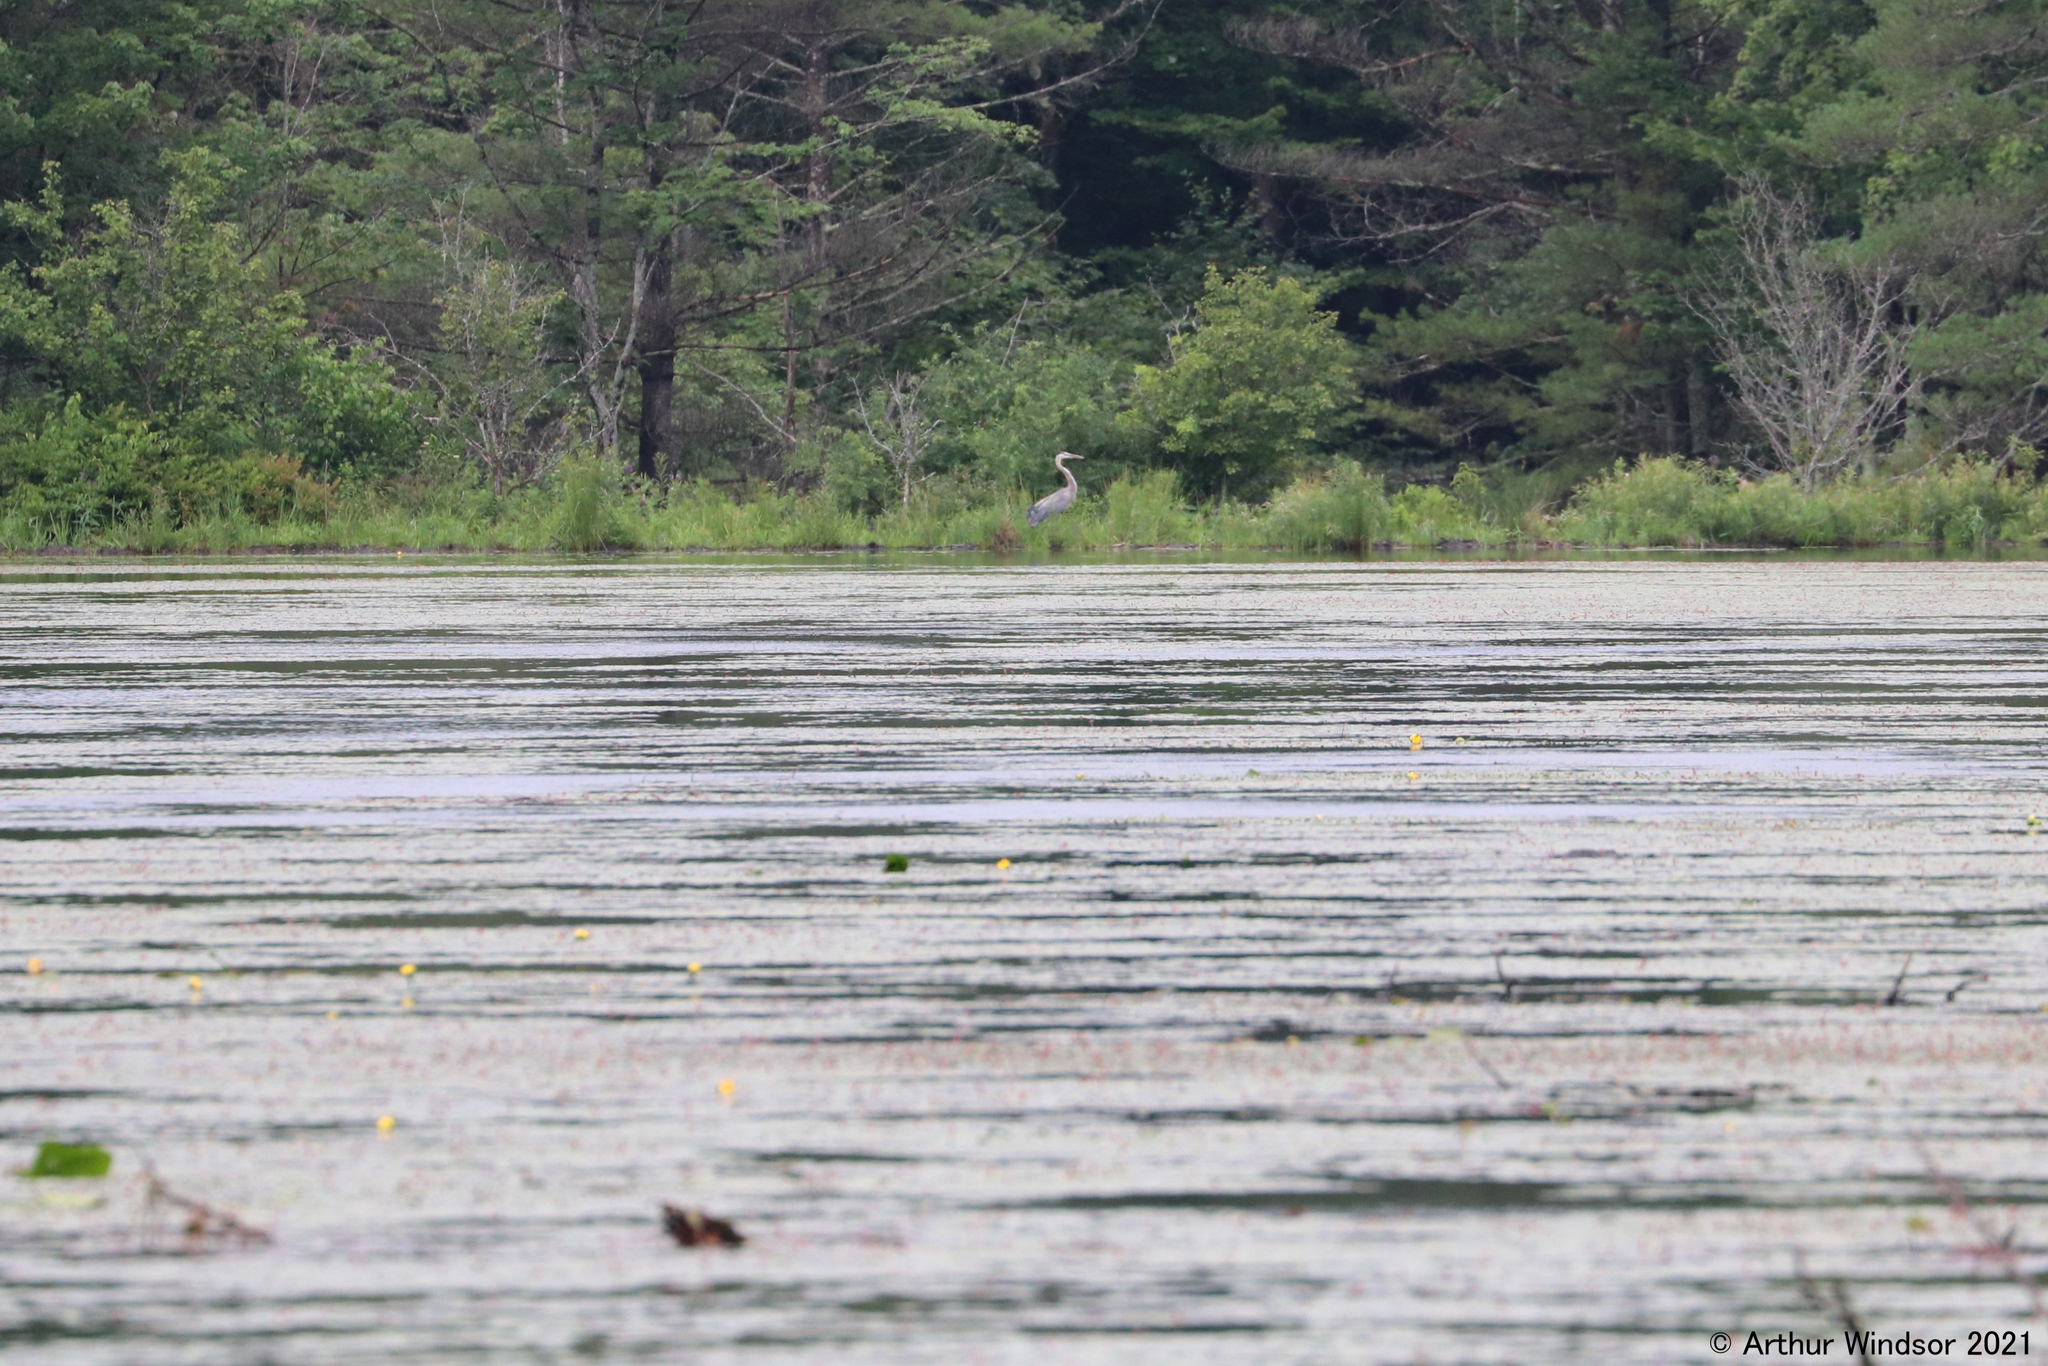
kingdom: Animalia
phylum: Chordata
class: Aves
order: Pelecaniformes
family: Ardeidae
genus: Ardea
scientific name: Ardea herodias
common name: Great blue heron
